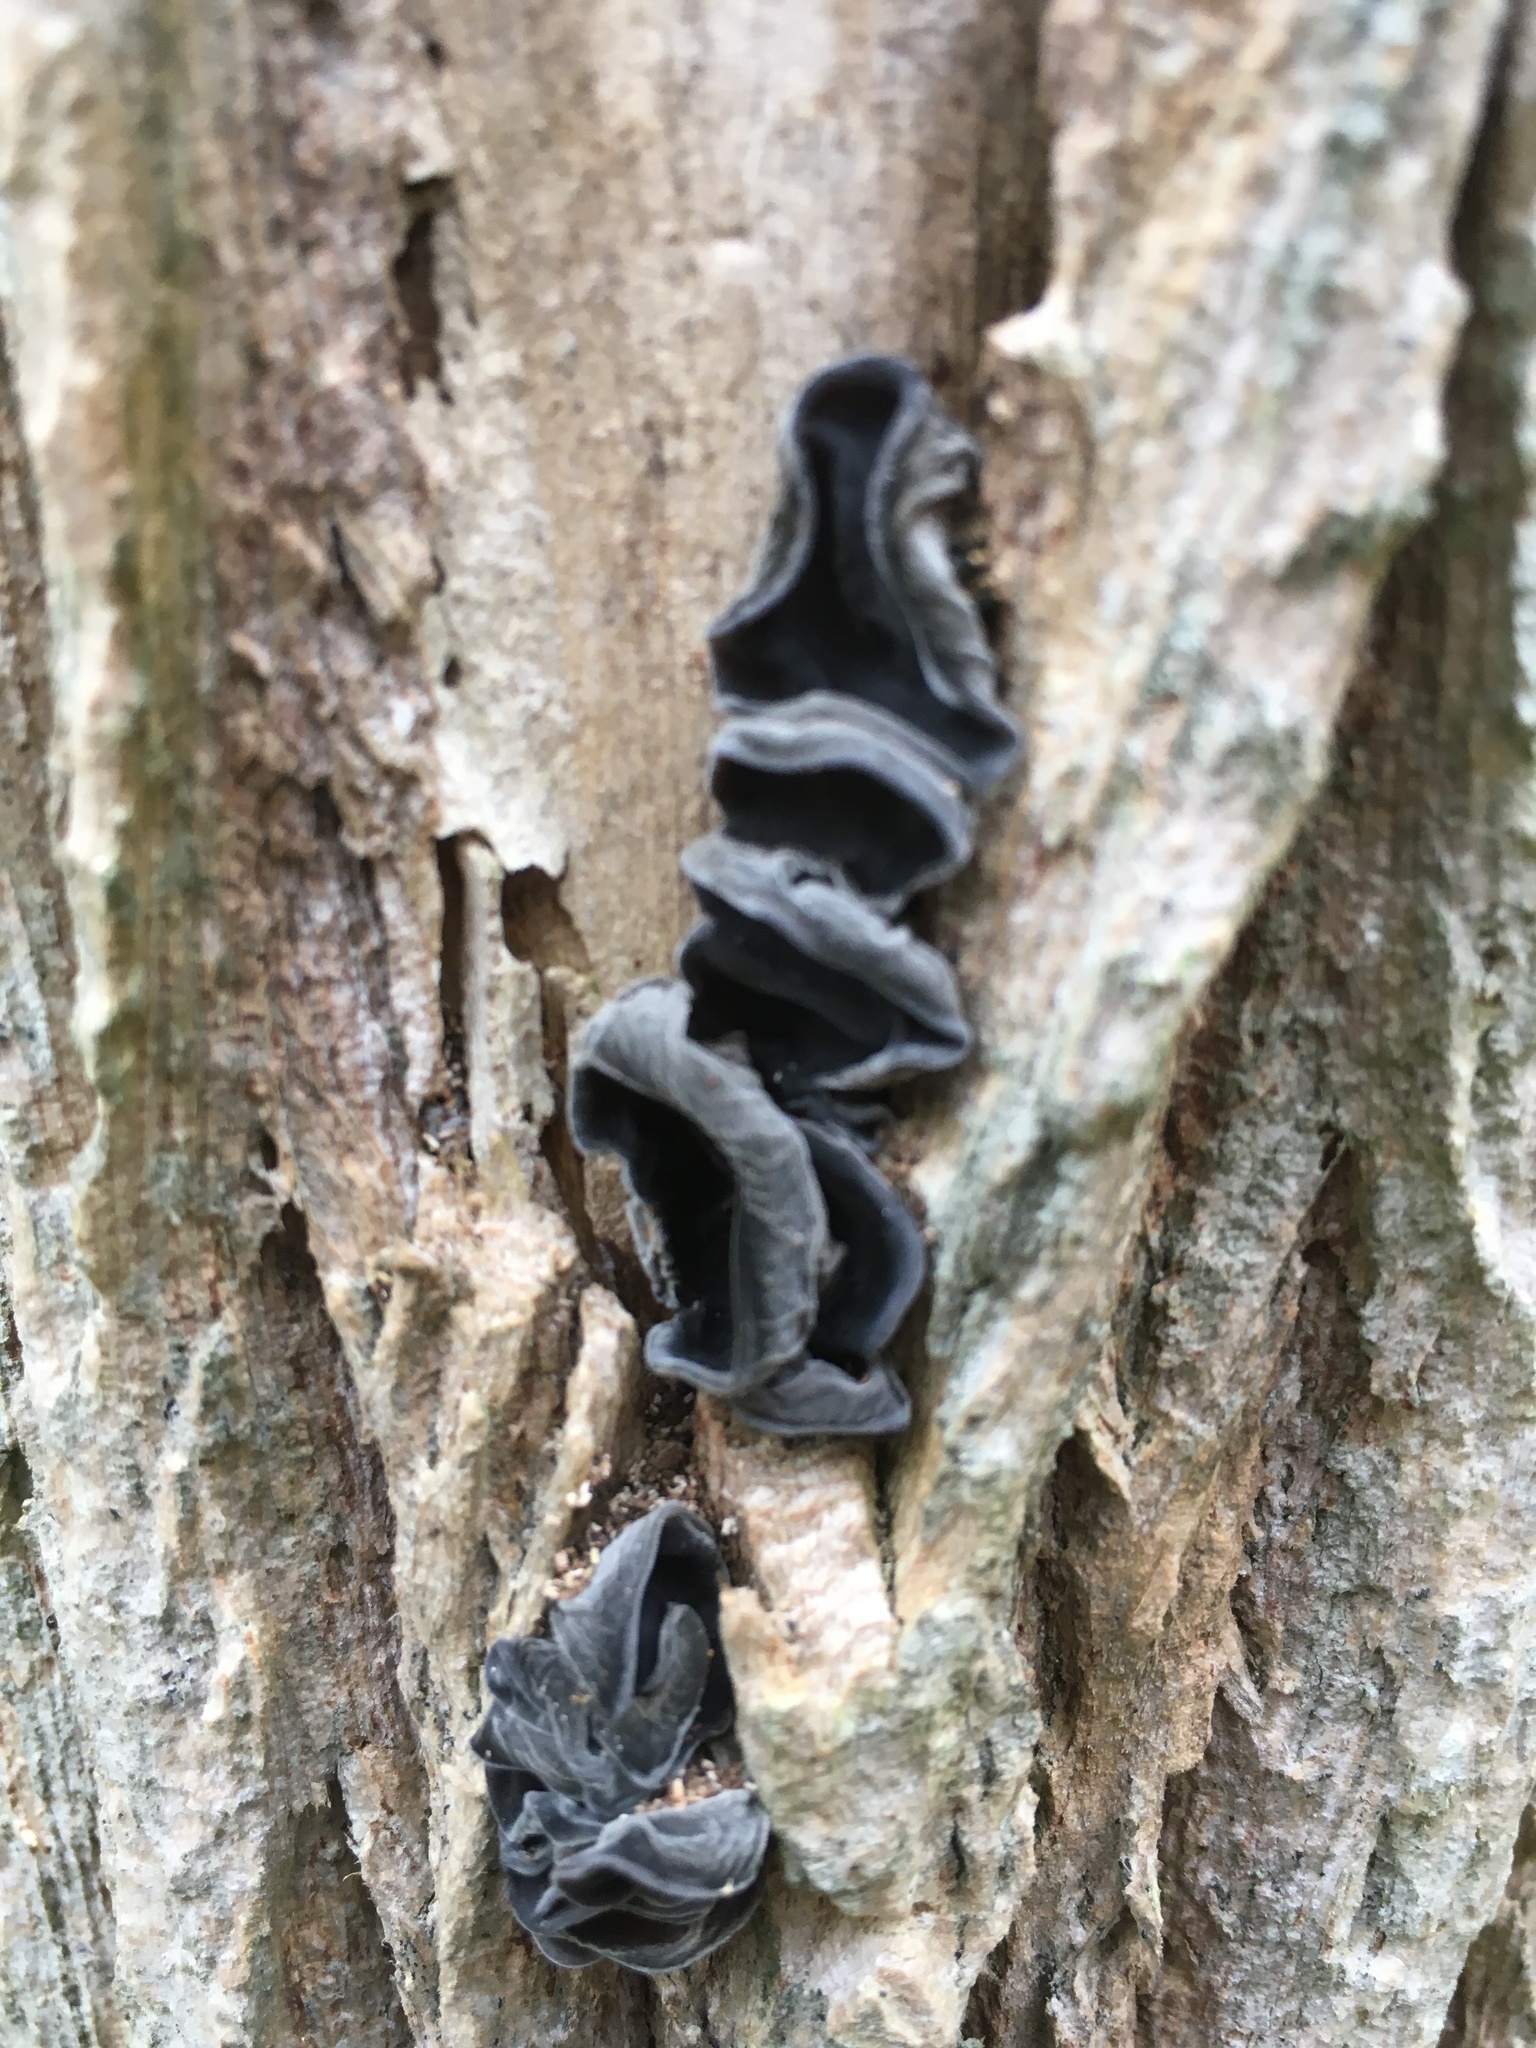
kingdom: Fungi
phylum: Basidiomycota
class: Agaricomycetes
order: Auriculariales
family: Auriculariaceae
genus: Auricularia
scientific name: Auricularia auricula-judae
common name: Jelly ear
